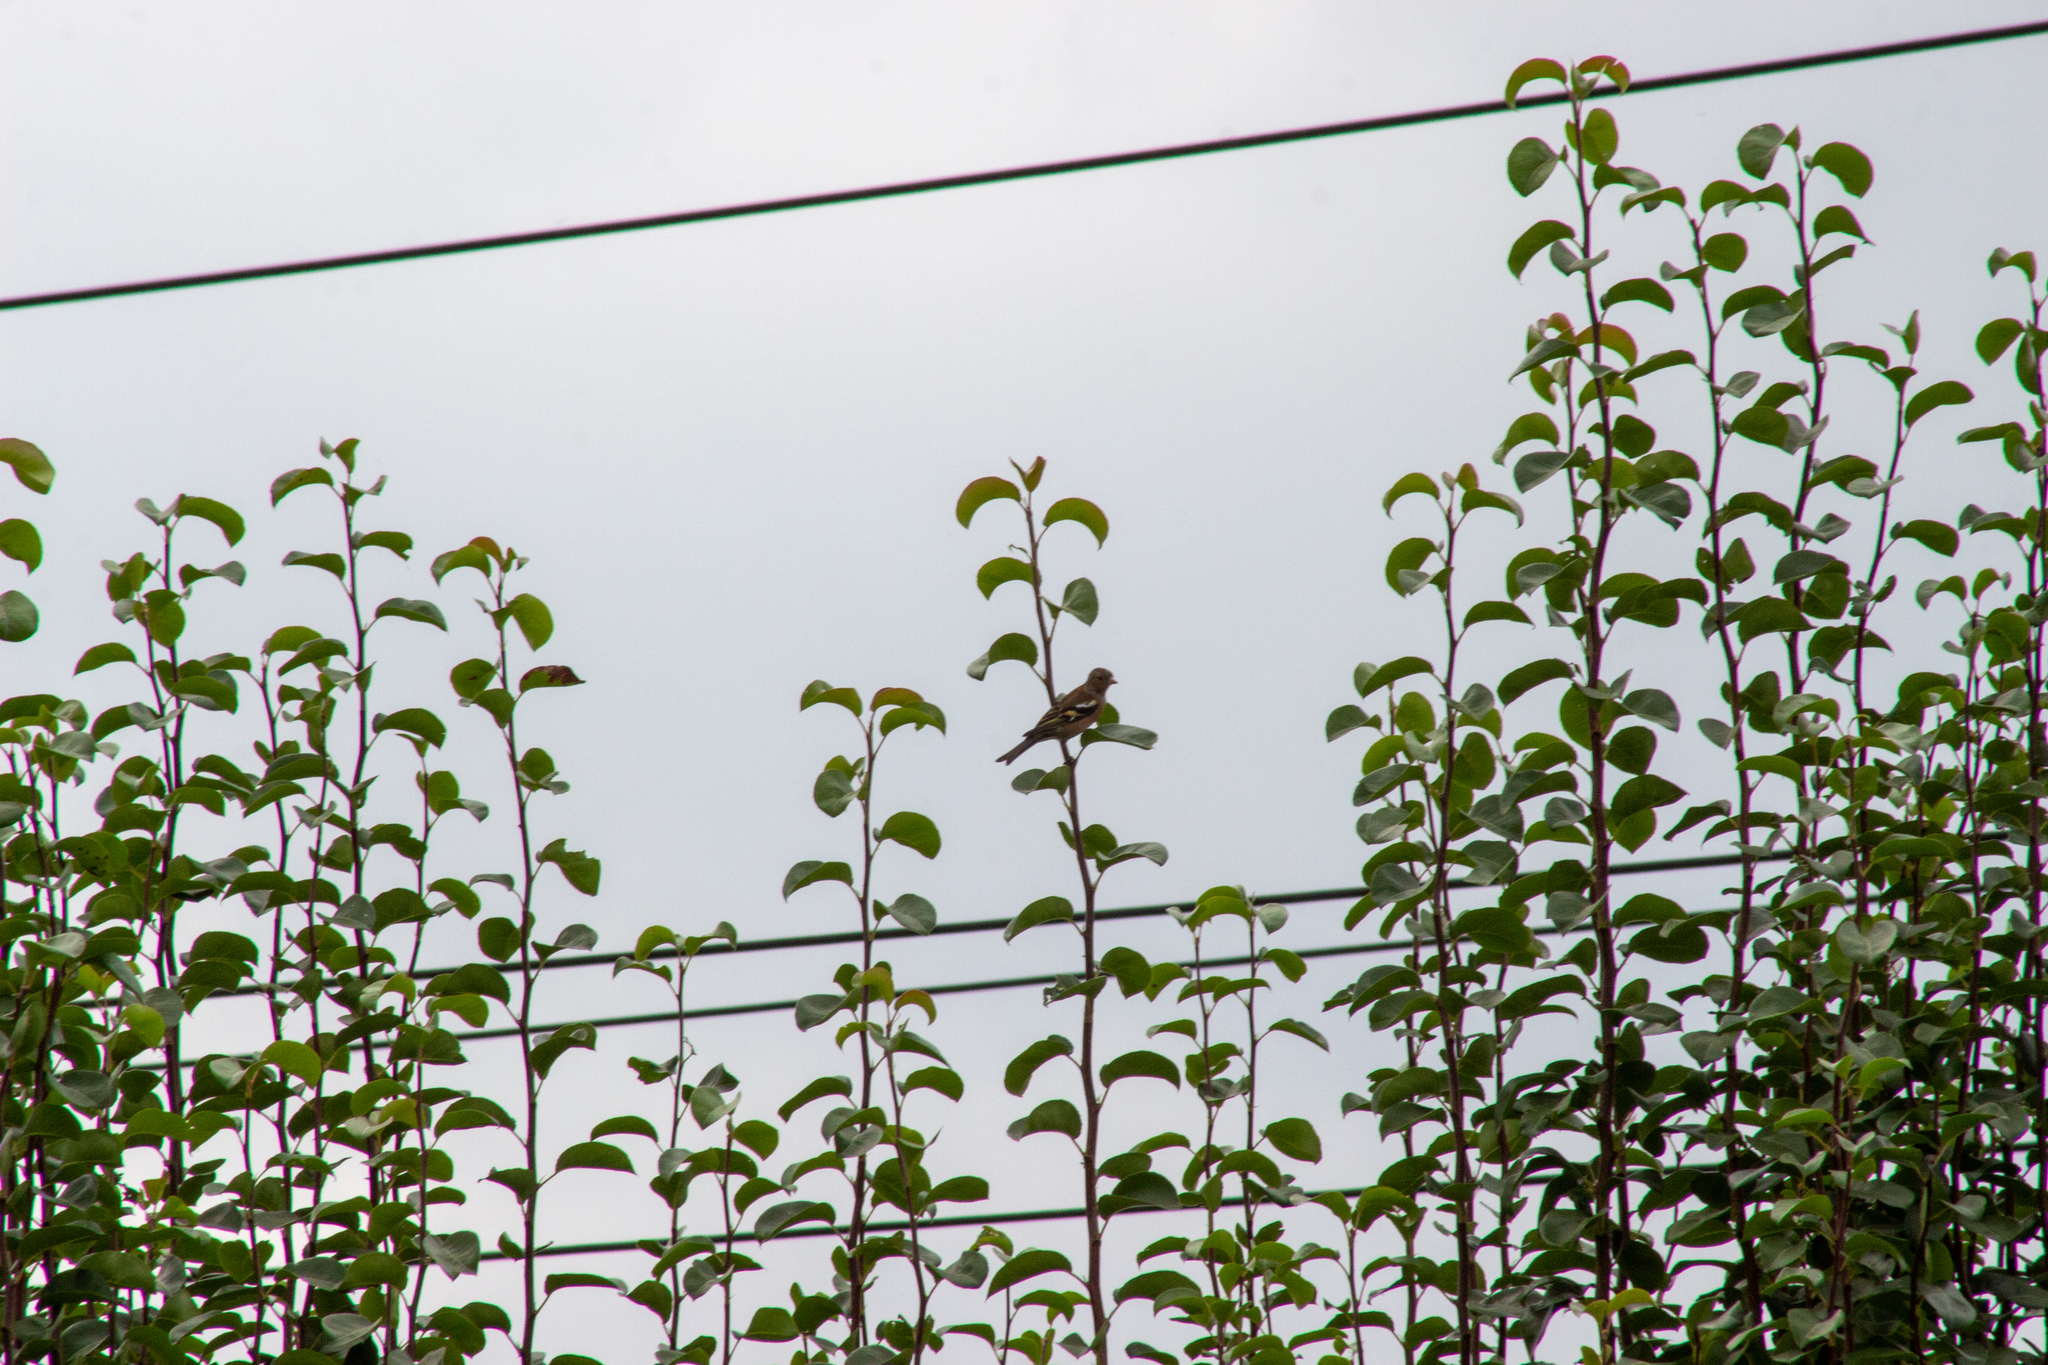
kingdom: Animalia
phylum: Chordata
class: Aves
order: Passeriformes
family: Fringillidae
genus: Carduelis
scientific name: Carduelis carduelis
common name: European goldfinch
